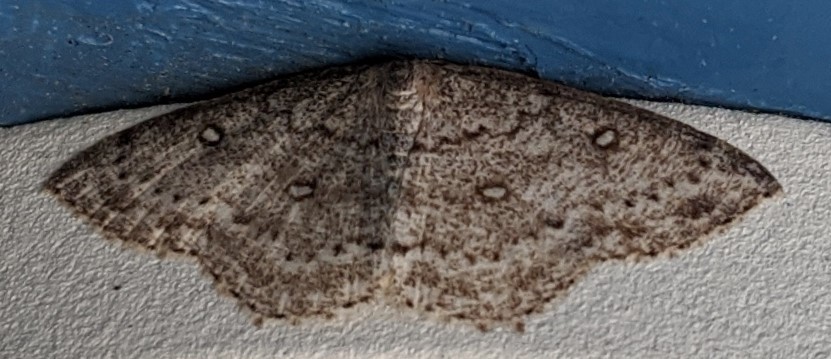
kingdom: Animalia
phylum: Arthropoda
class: Insecta
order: Lepidoptera
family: Geometridae
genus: Cyclophora
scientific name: Cyclophora pendulinaria
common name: Sweet fern geometer
